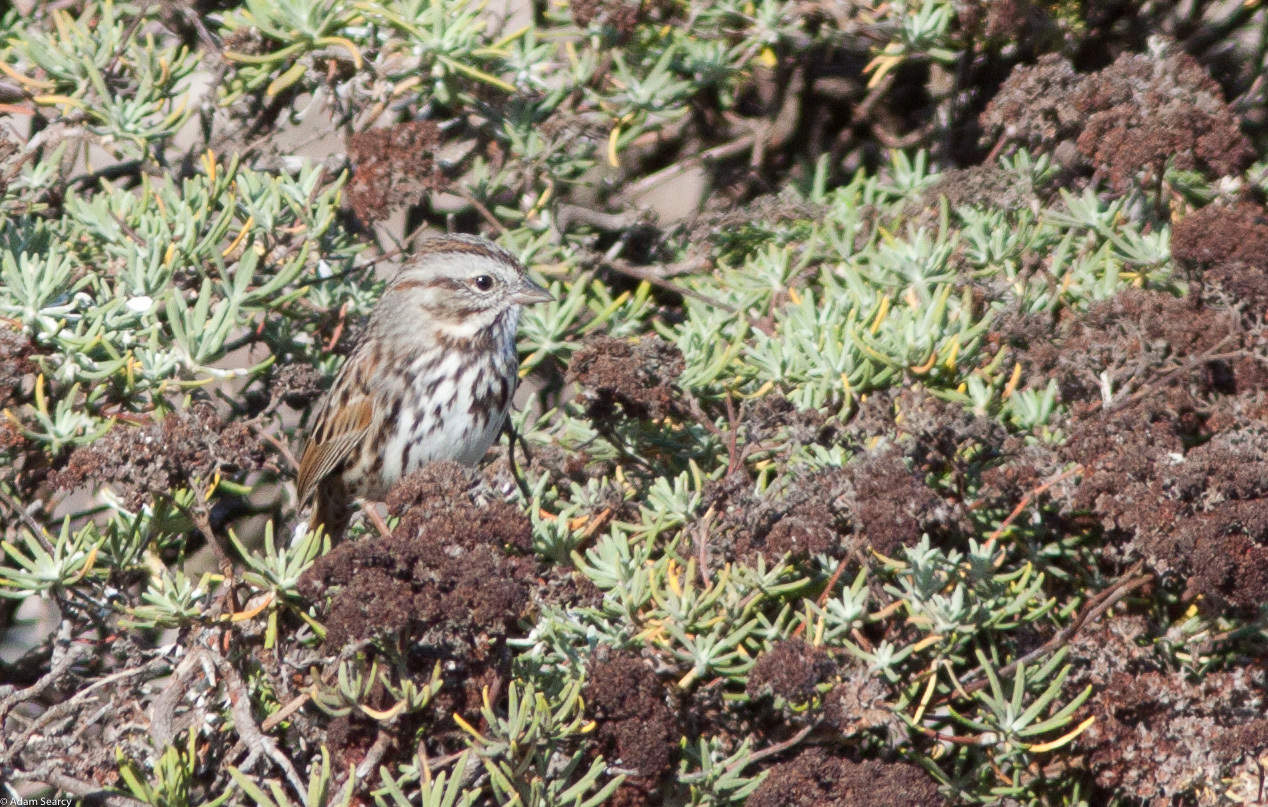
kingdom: Animalia
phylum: Chordata
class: Aves
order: Passeriformes
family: Passerellidae
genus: Melospiza
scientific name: Melospiza melodia
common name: Song sparrow
